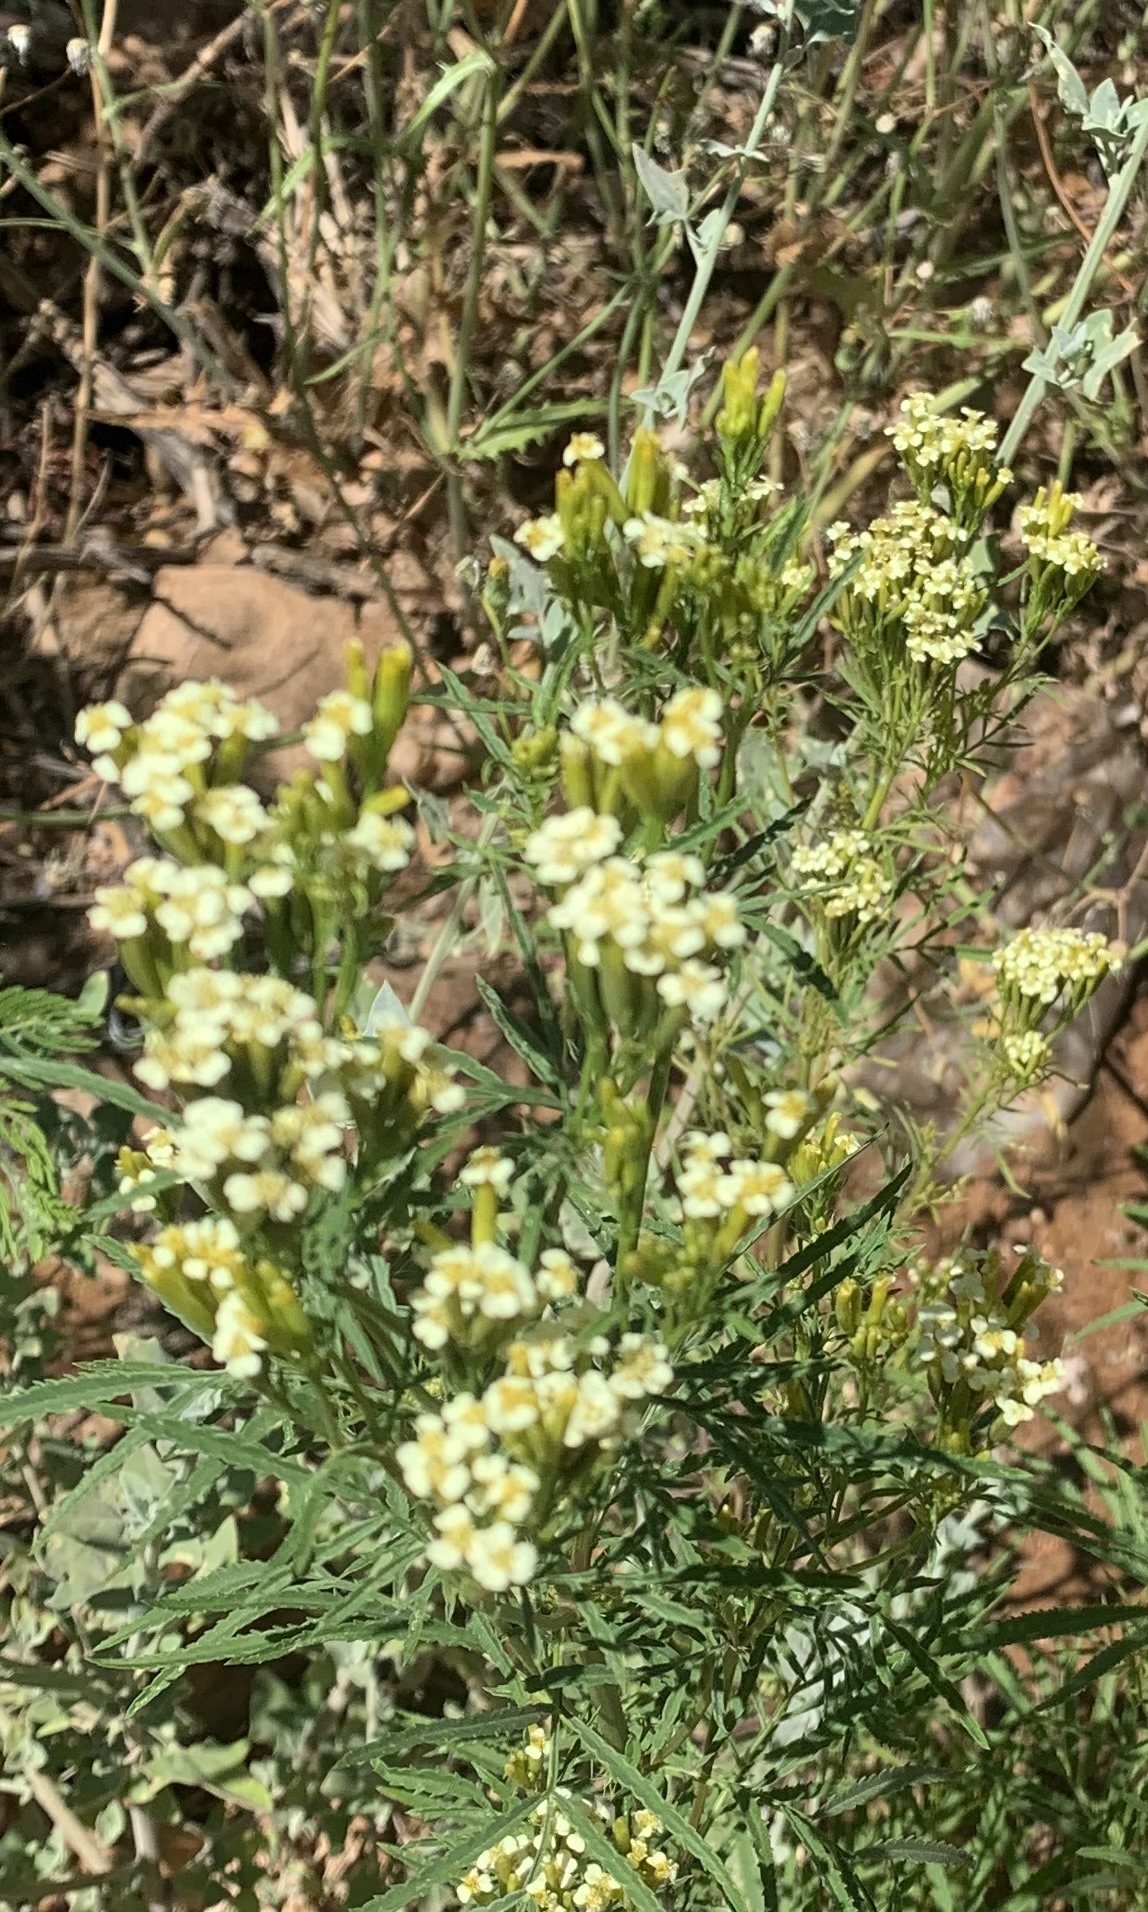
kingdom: Plantae
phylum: Tracheophyta
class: Magnoliopsida
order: Asterales
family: Asteraceae
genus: Tagetes
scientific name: Tagetes minuta
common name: Muster john henry
